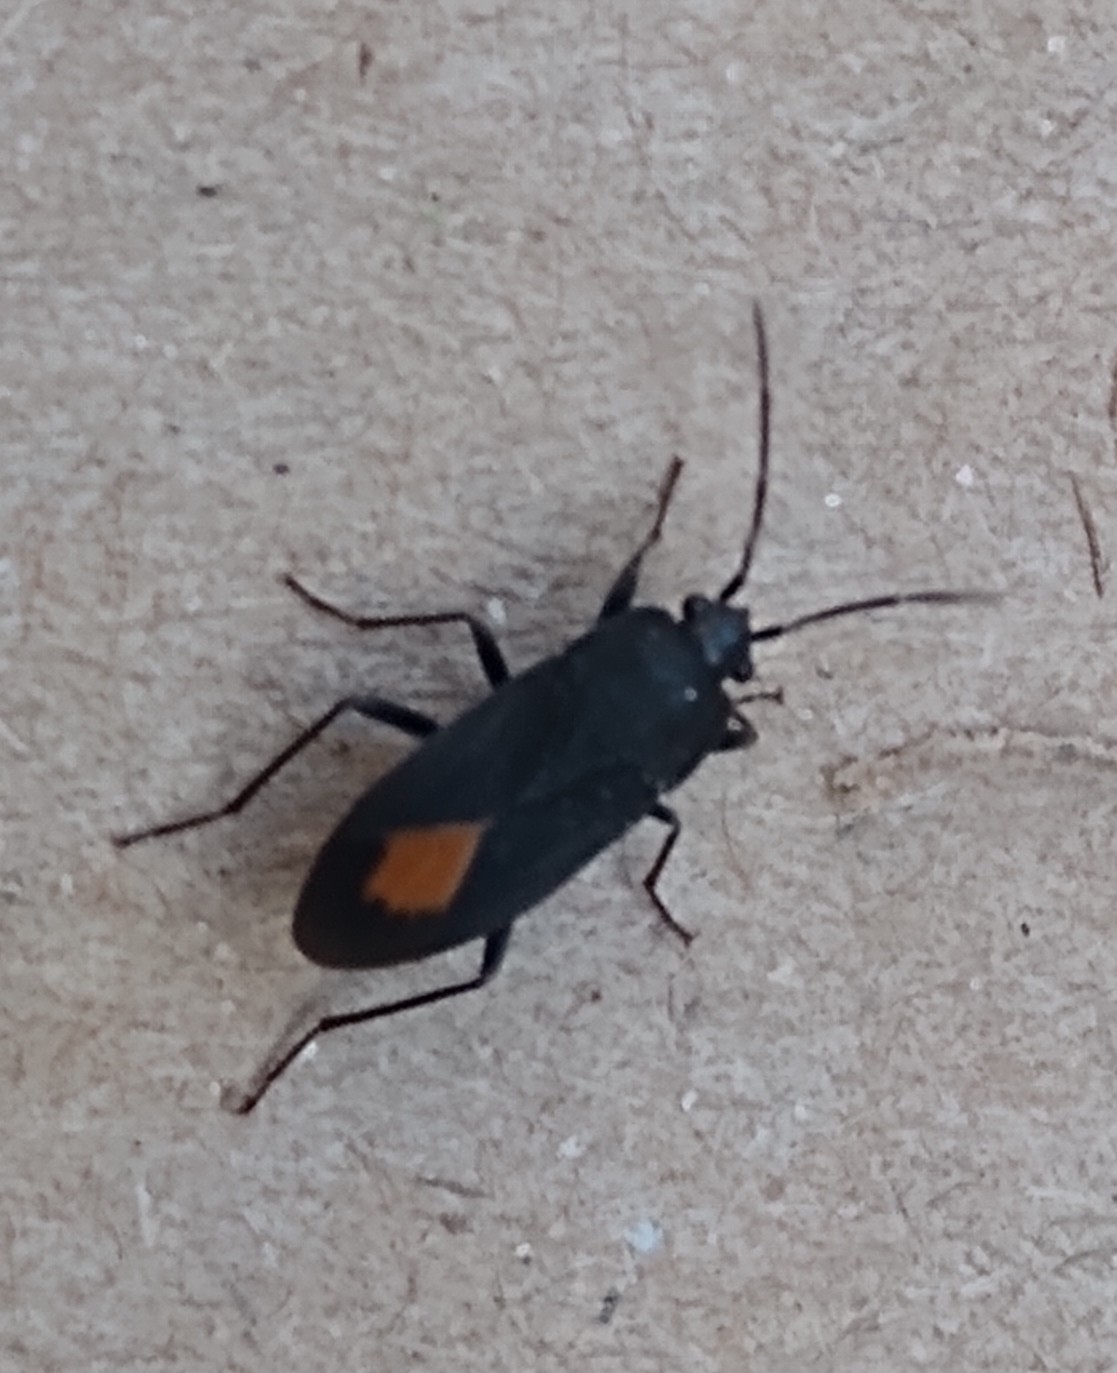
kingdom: Animalia
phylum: Arthropoda
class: Insecta
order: Hemiptera
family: Rhyparochromidae
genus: Aphanus
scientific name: Aphanus rolandri
